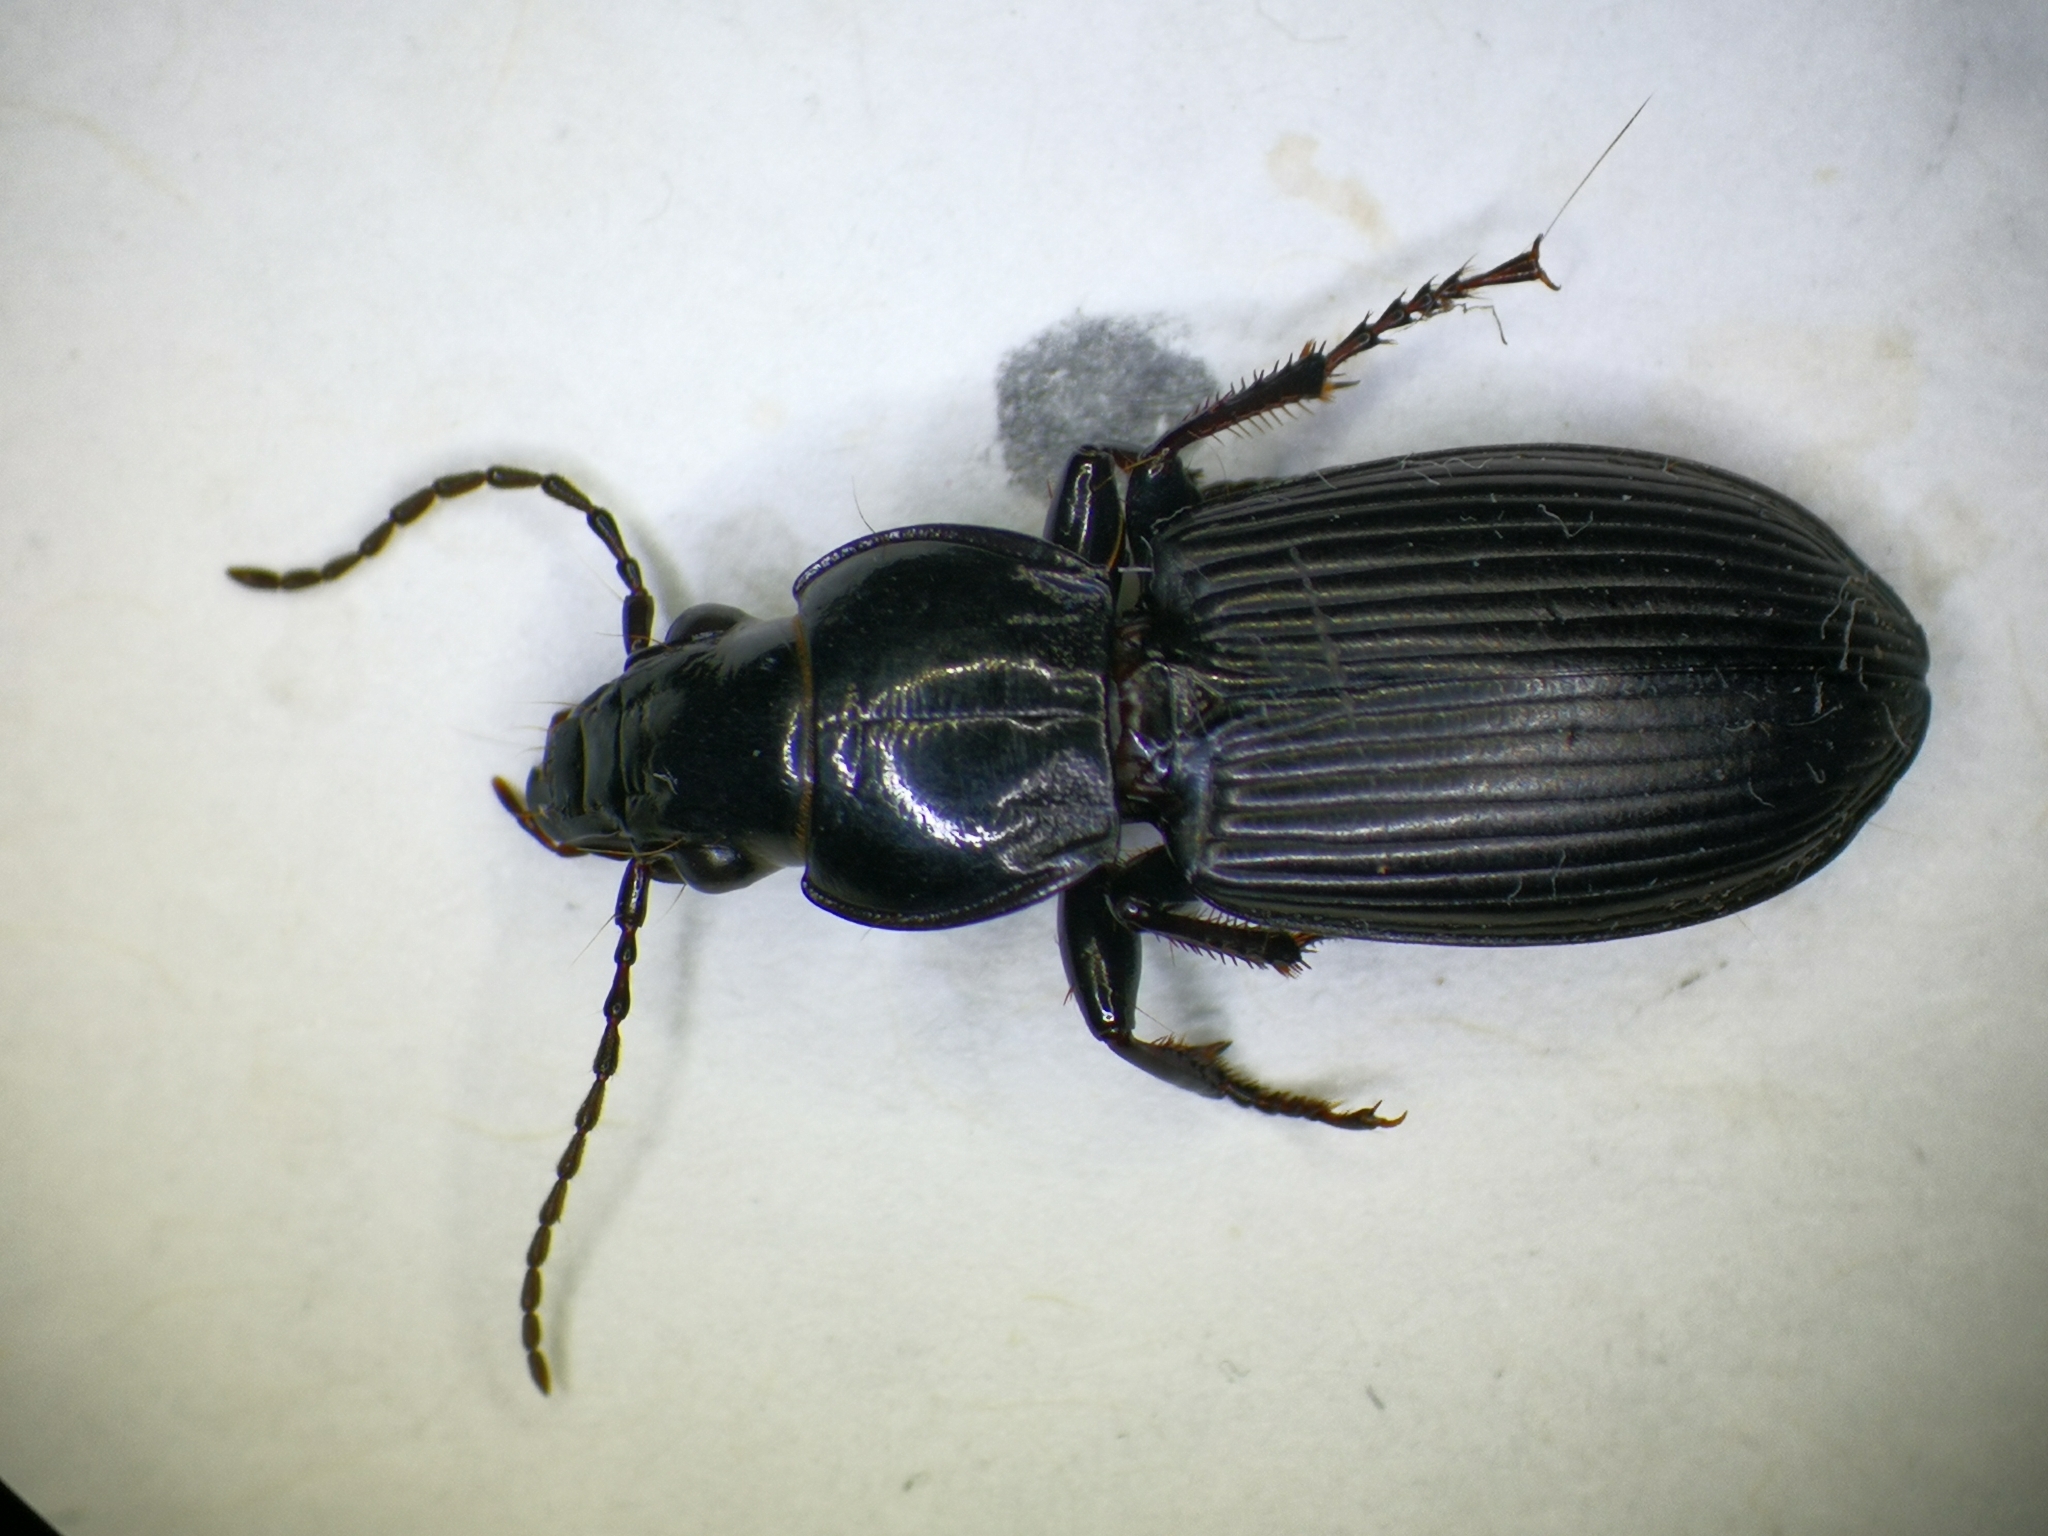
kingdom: Animalia
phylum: Arthropoda
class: Insecta
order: Coleoptera
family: Carabidae
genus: Pterostichus
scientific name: Pterostichus melanarius
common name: European dark harp ground beetle
